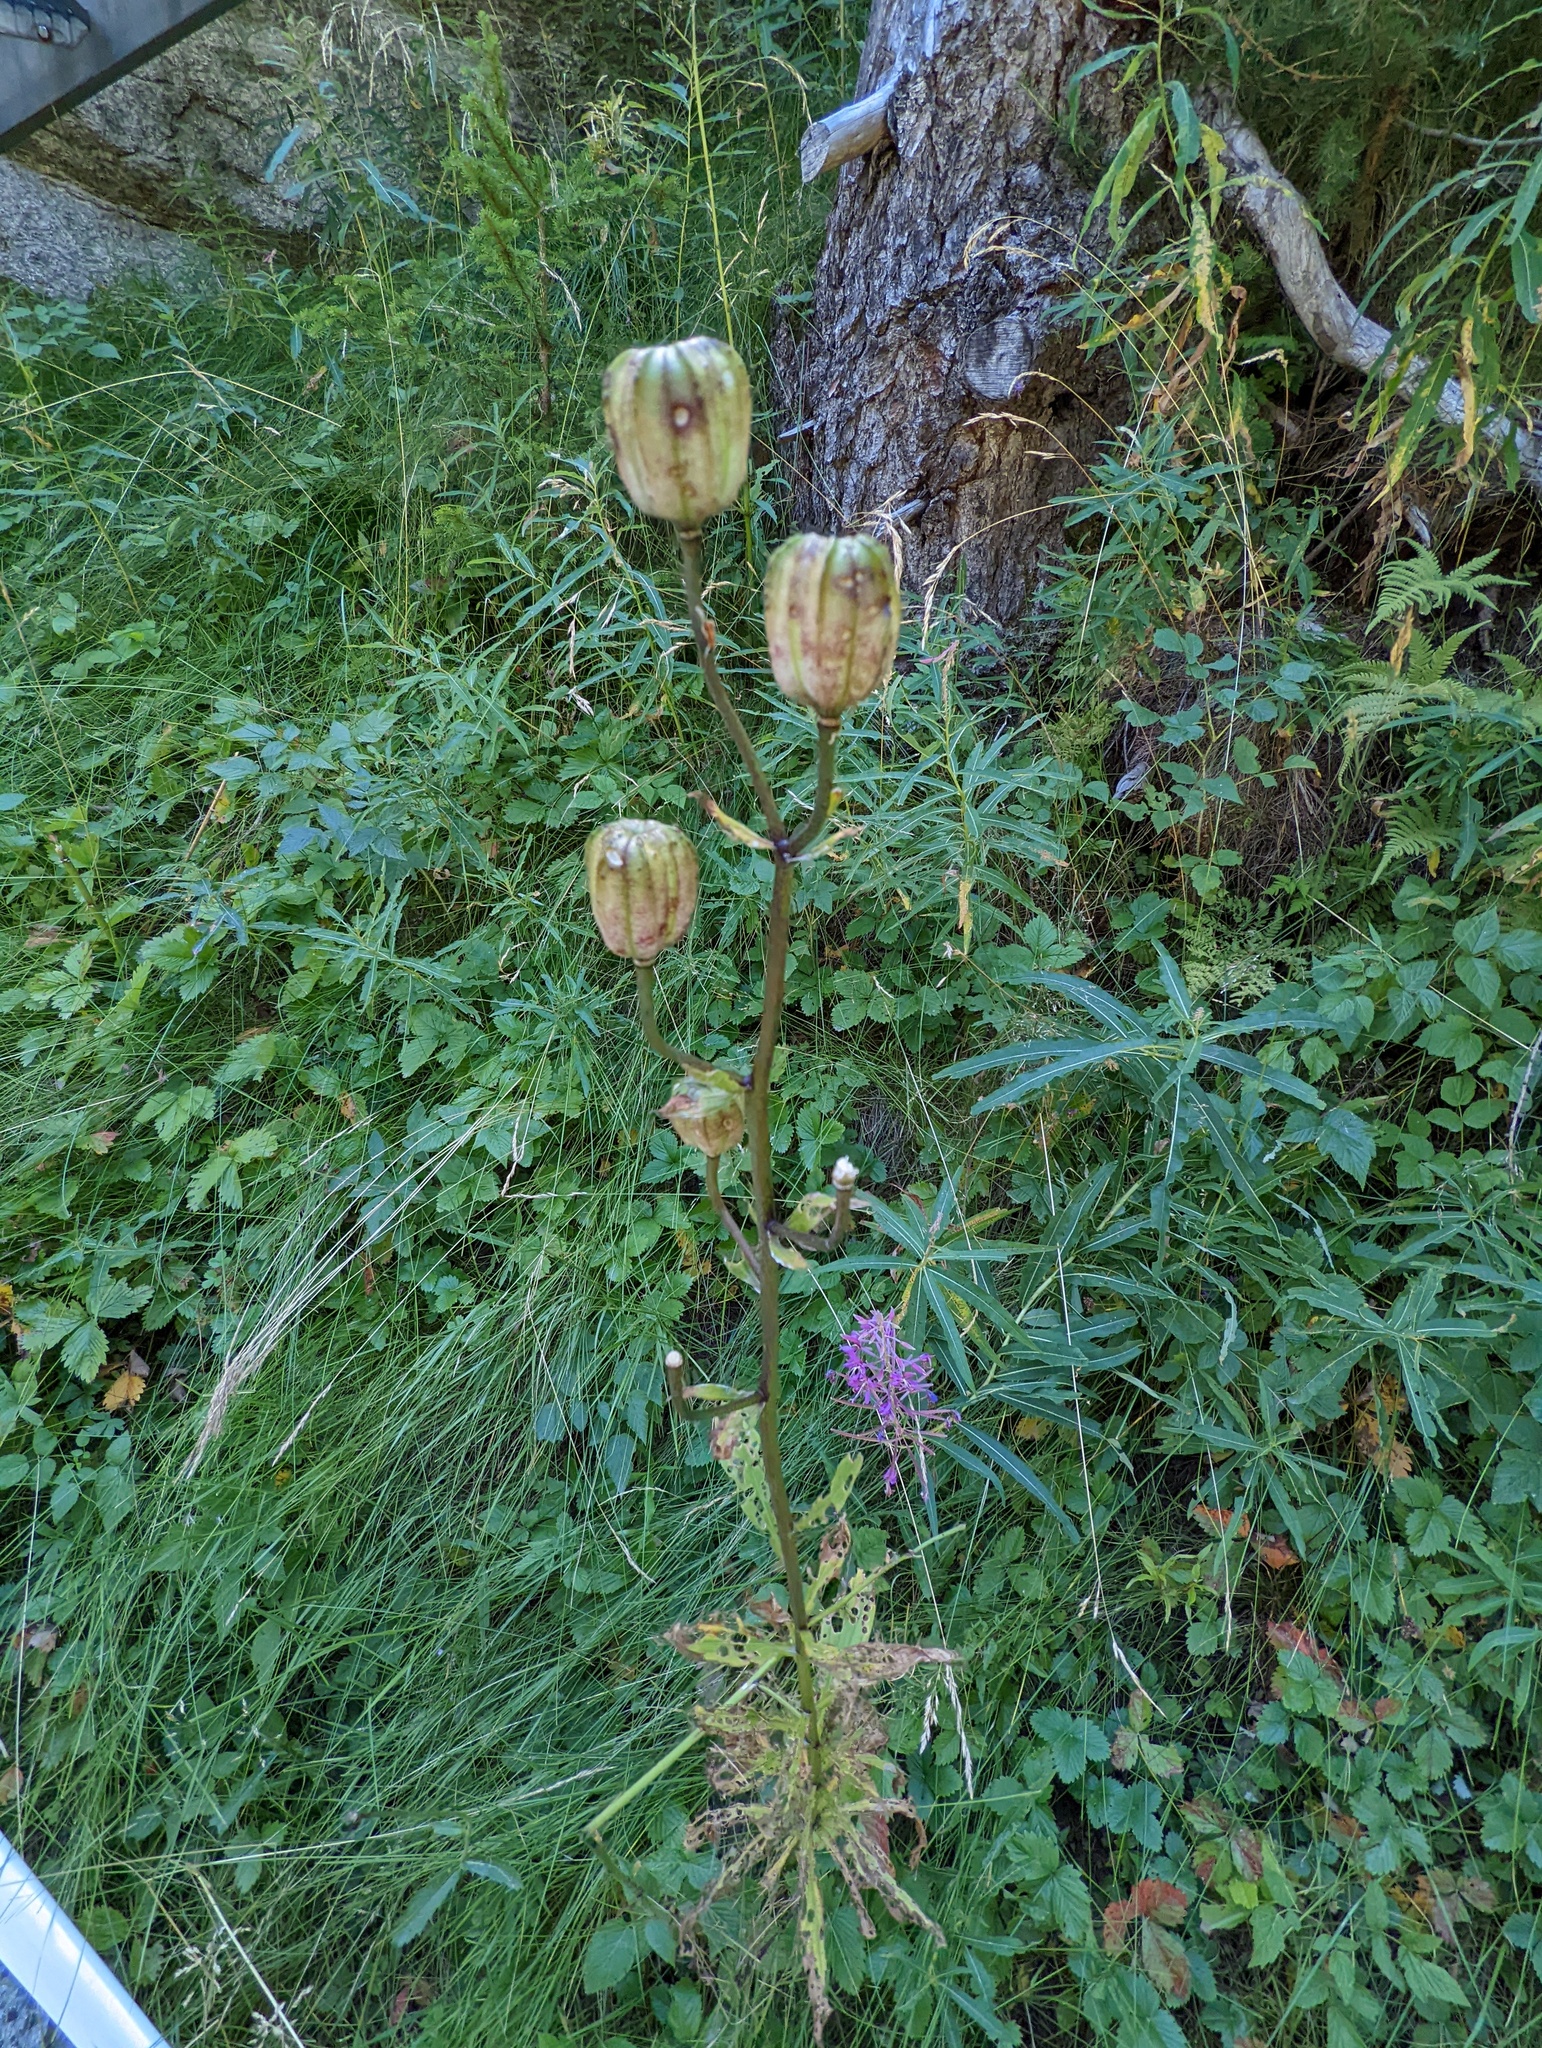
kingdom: Plantae
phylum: Tracheophyta
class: Liliopsida
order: Liliales
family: Liliaceae
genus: Lilium
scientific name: Lilium martagon
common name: Martagon lily
